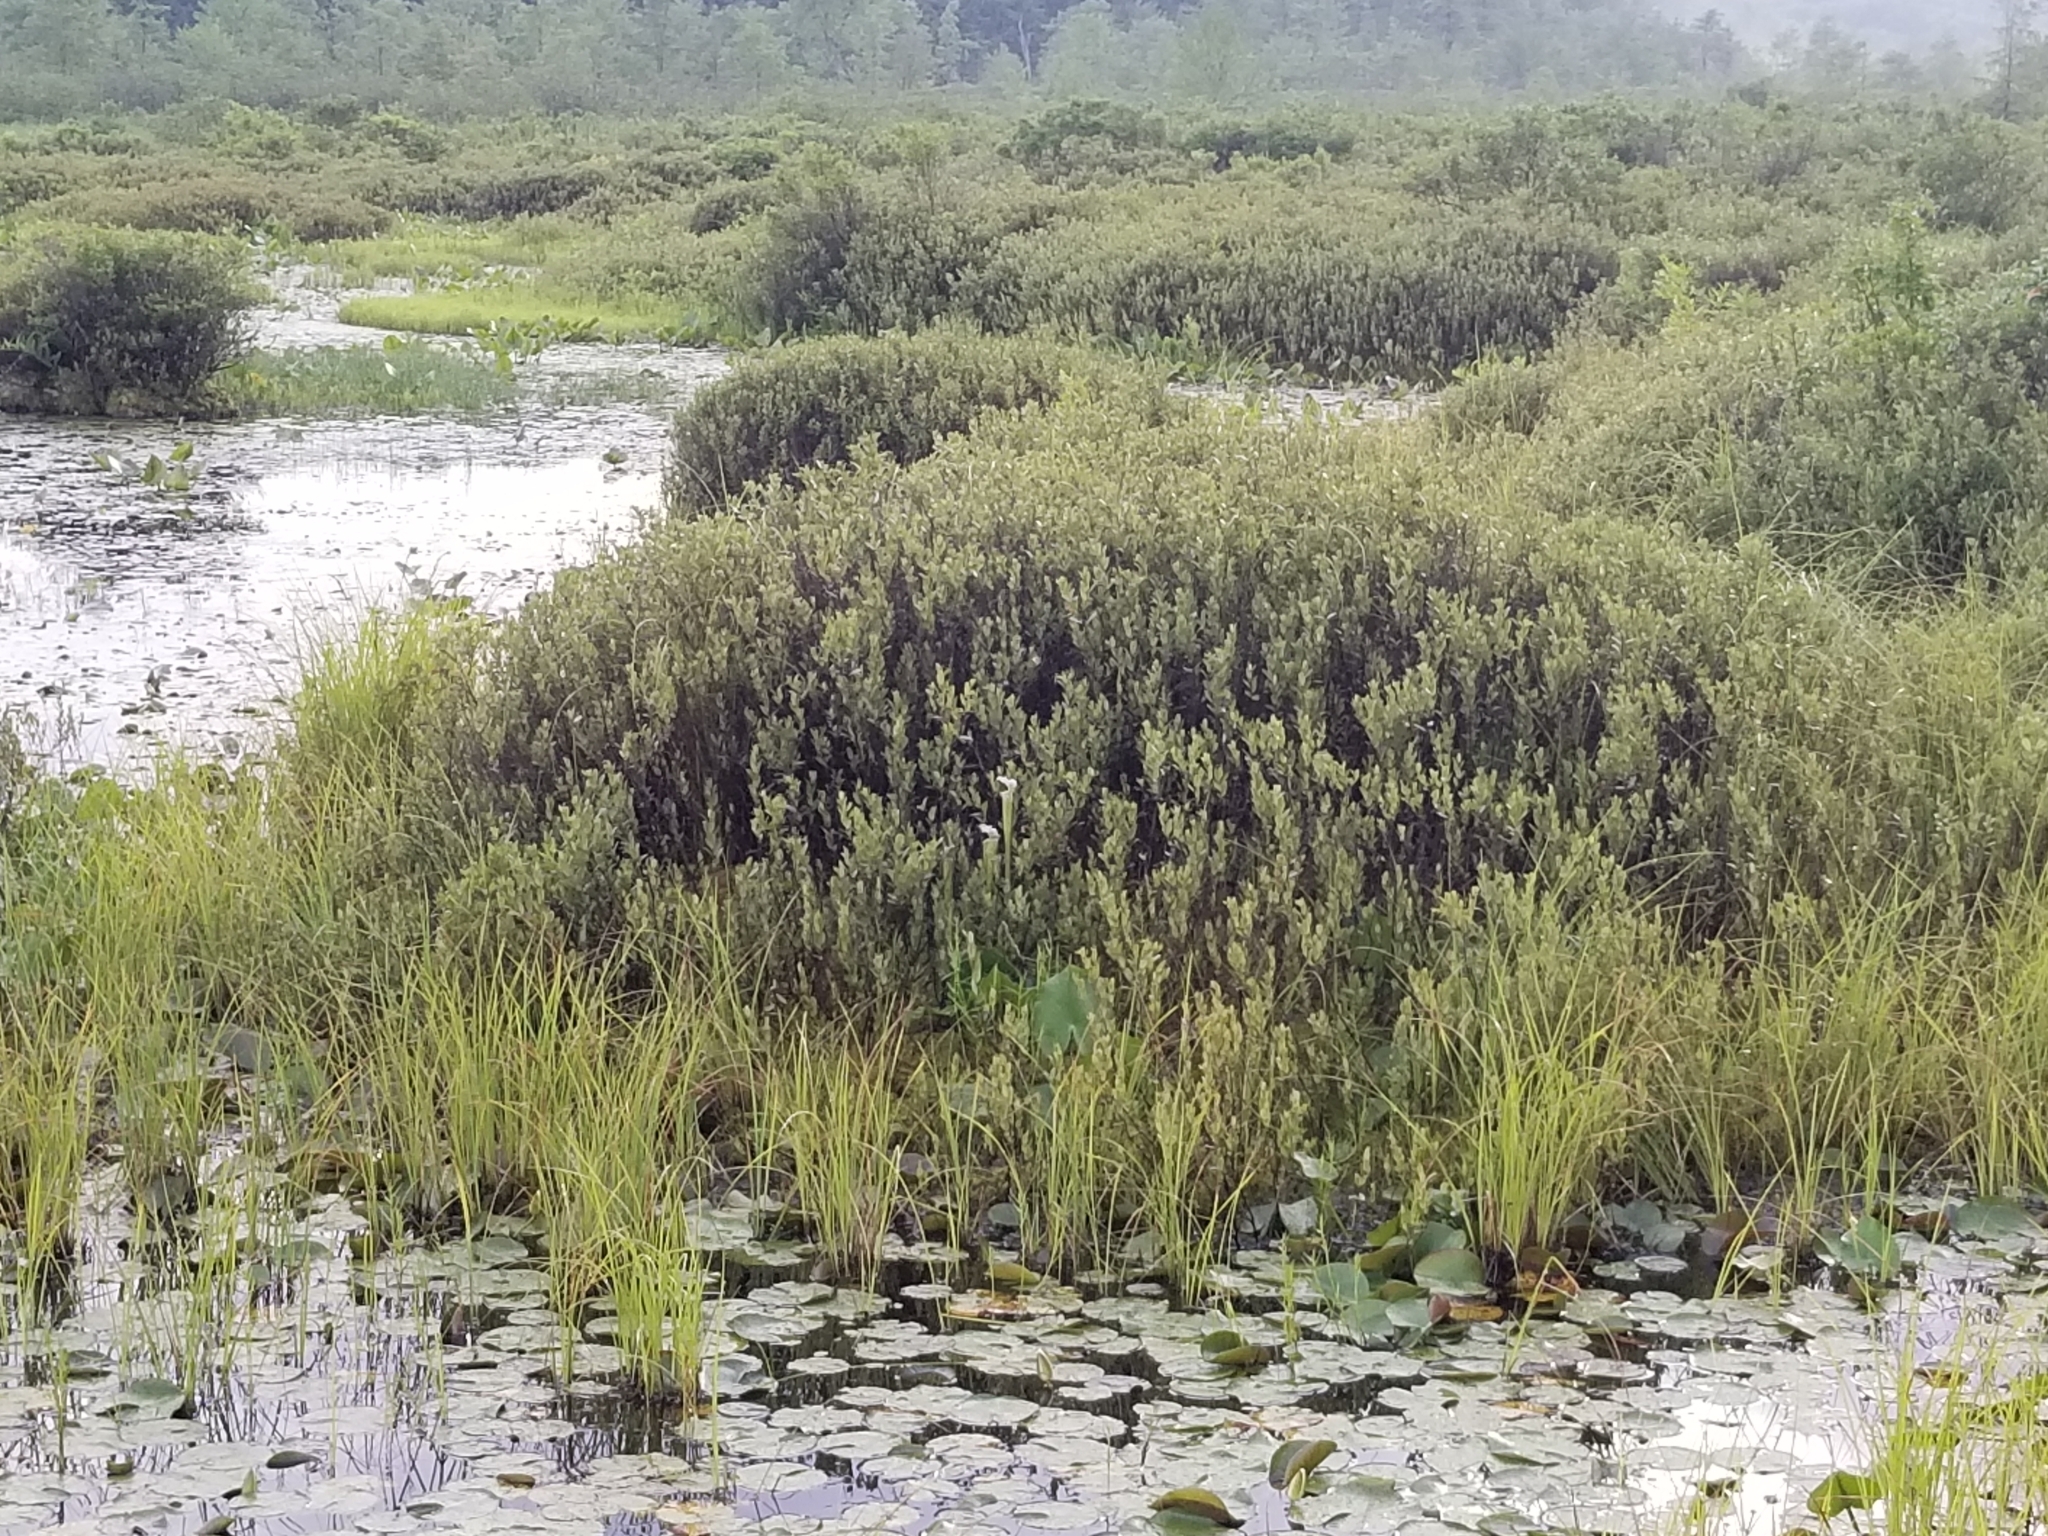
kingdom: Plantae
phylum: Tracheophyta
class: Magnoliopsida
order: Ericales
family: Sarraceniaceae
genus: Sarracenia
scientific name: Sarracenia leucophylla
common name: Purple trumpetleaf
